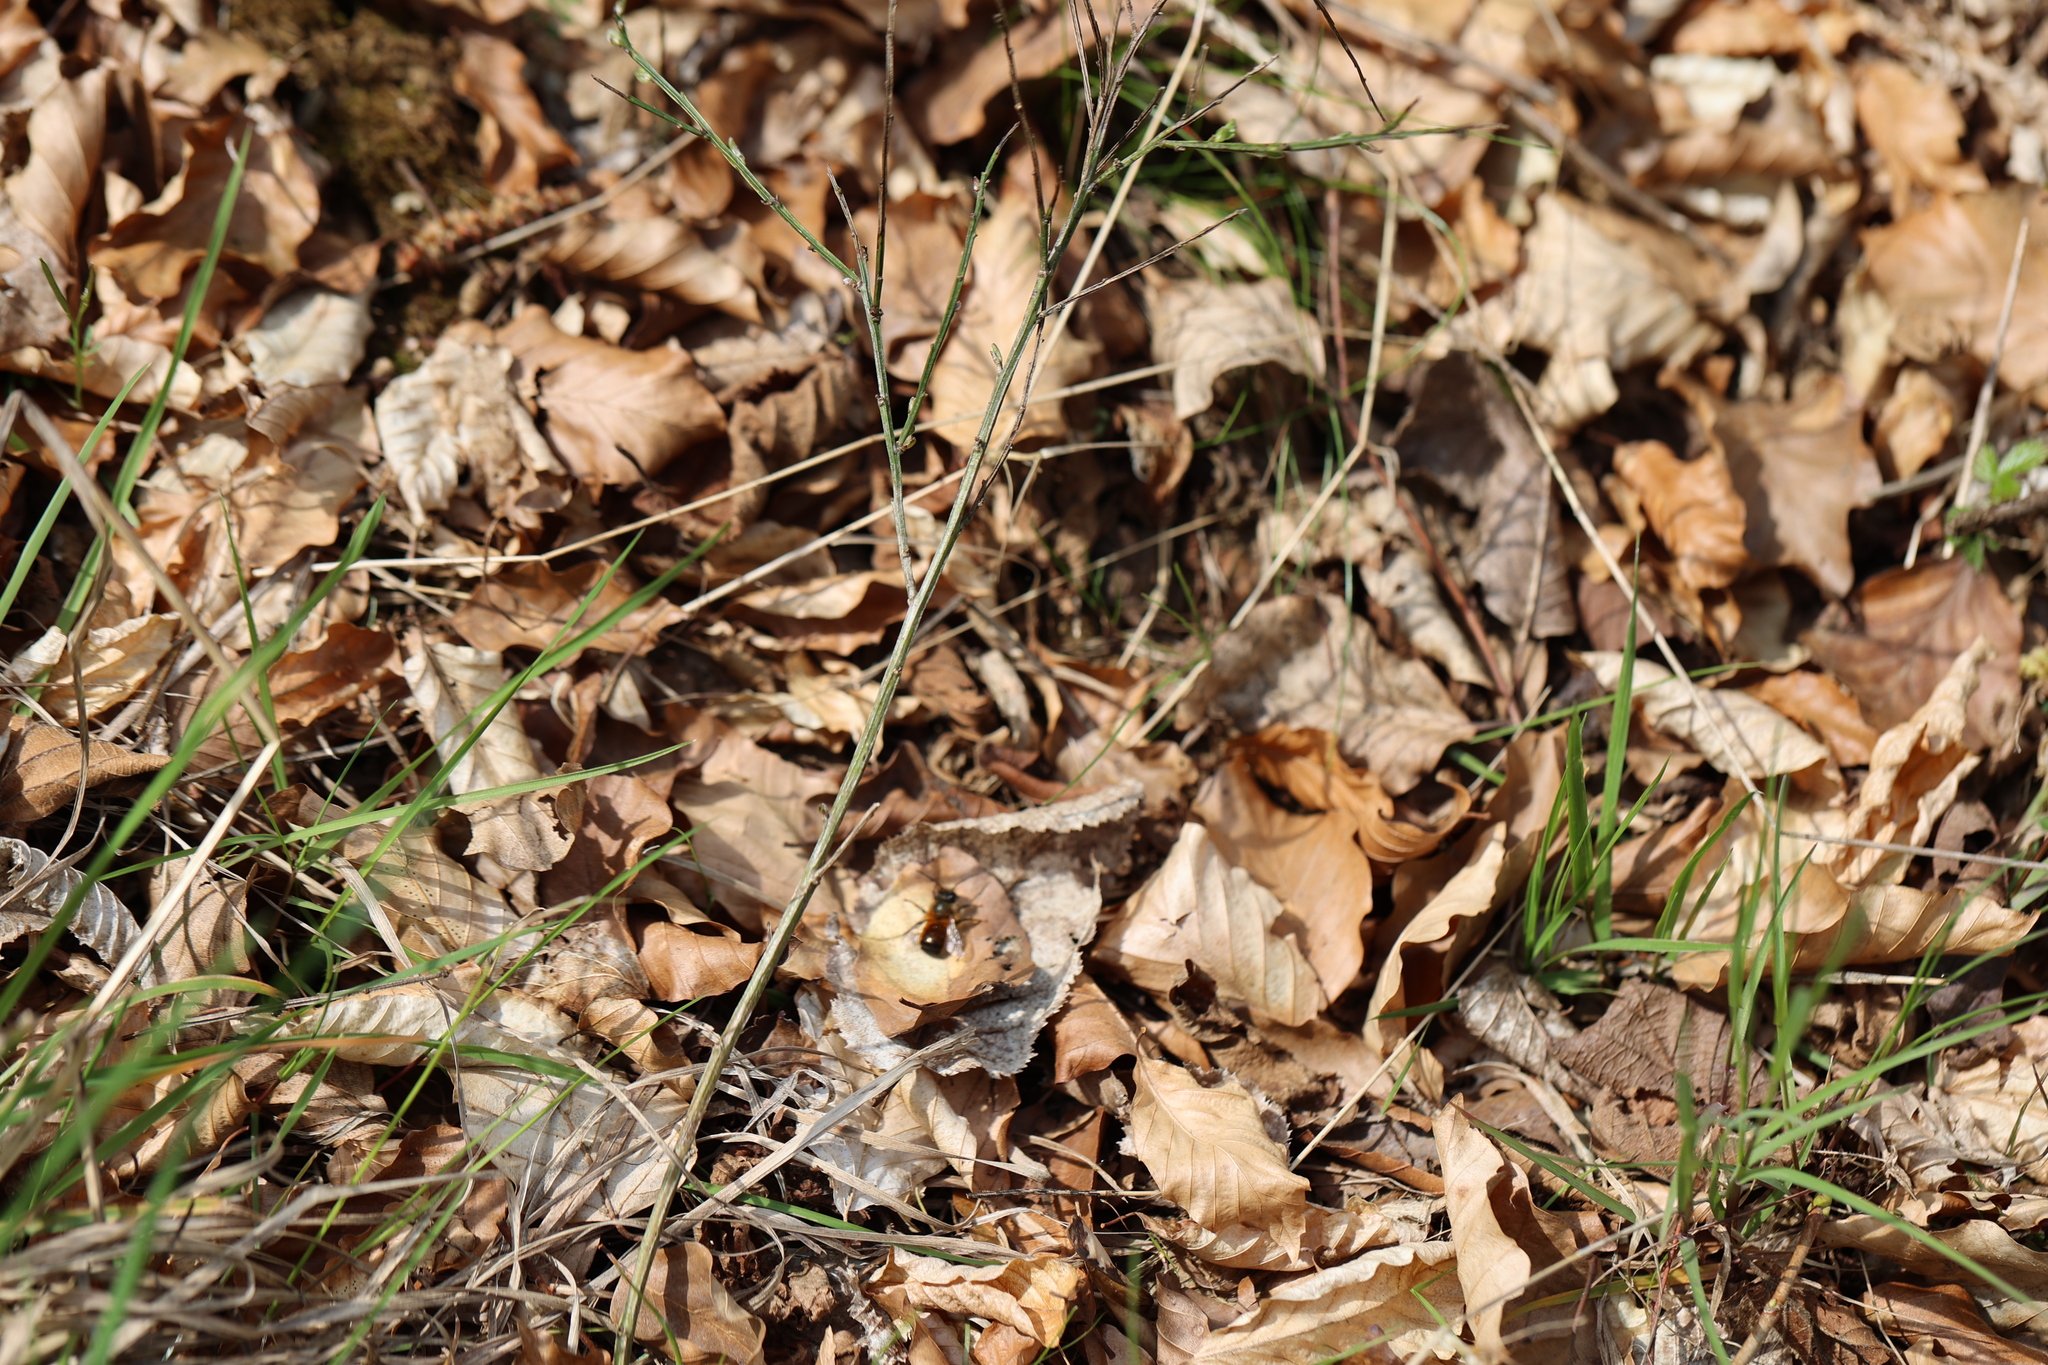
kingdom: Animalia
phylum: Arthropoda
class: Insecta
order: Hymenoptera
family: Megachilidae
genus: Osmia
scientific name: Osmia bicornis
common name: Red mason bee
